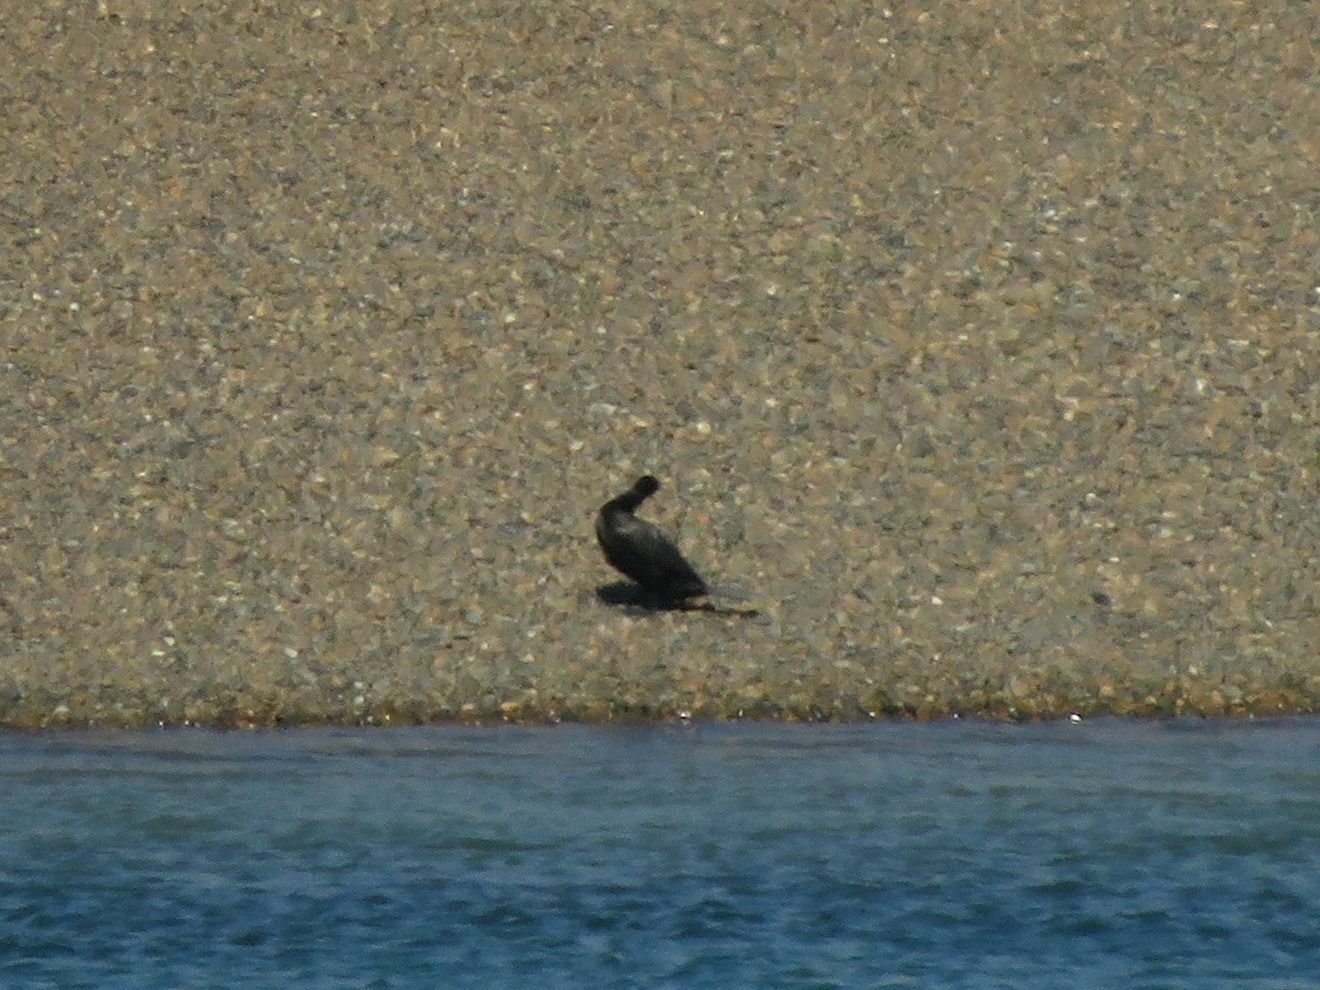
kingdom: Animalia
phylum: Chordata
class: Aves
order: Suliformes
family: Phalacrocoracidae
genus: Phalacrocorax
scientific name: Phalacrocorax brasilianus
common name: Neotropic cormorant
